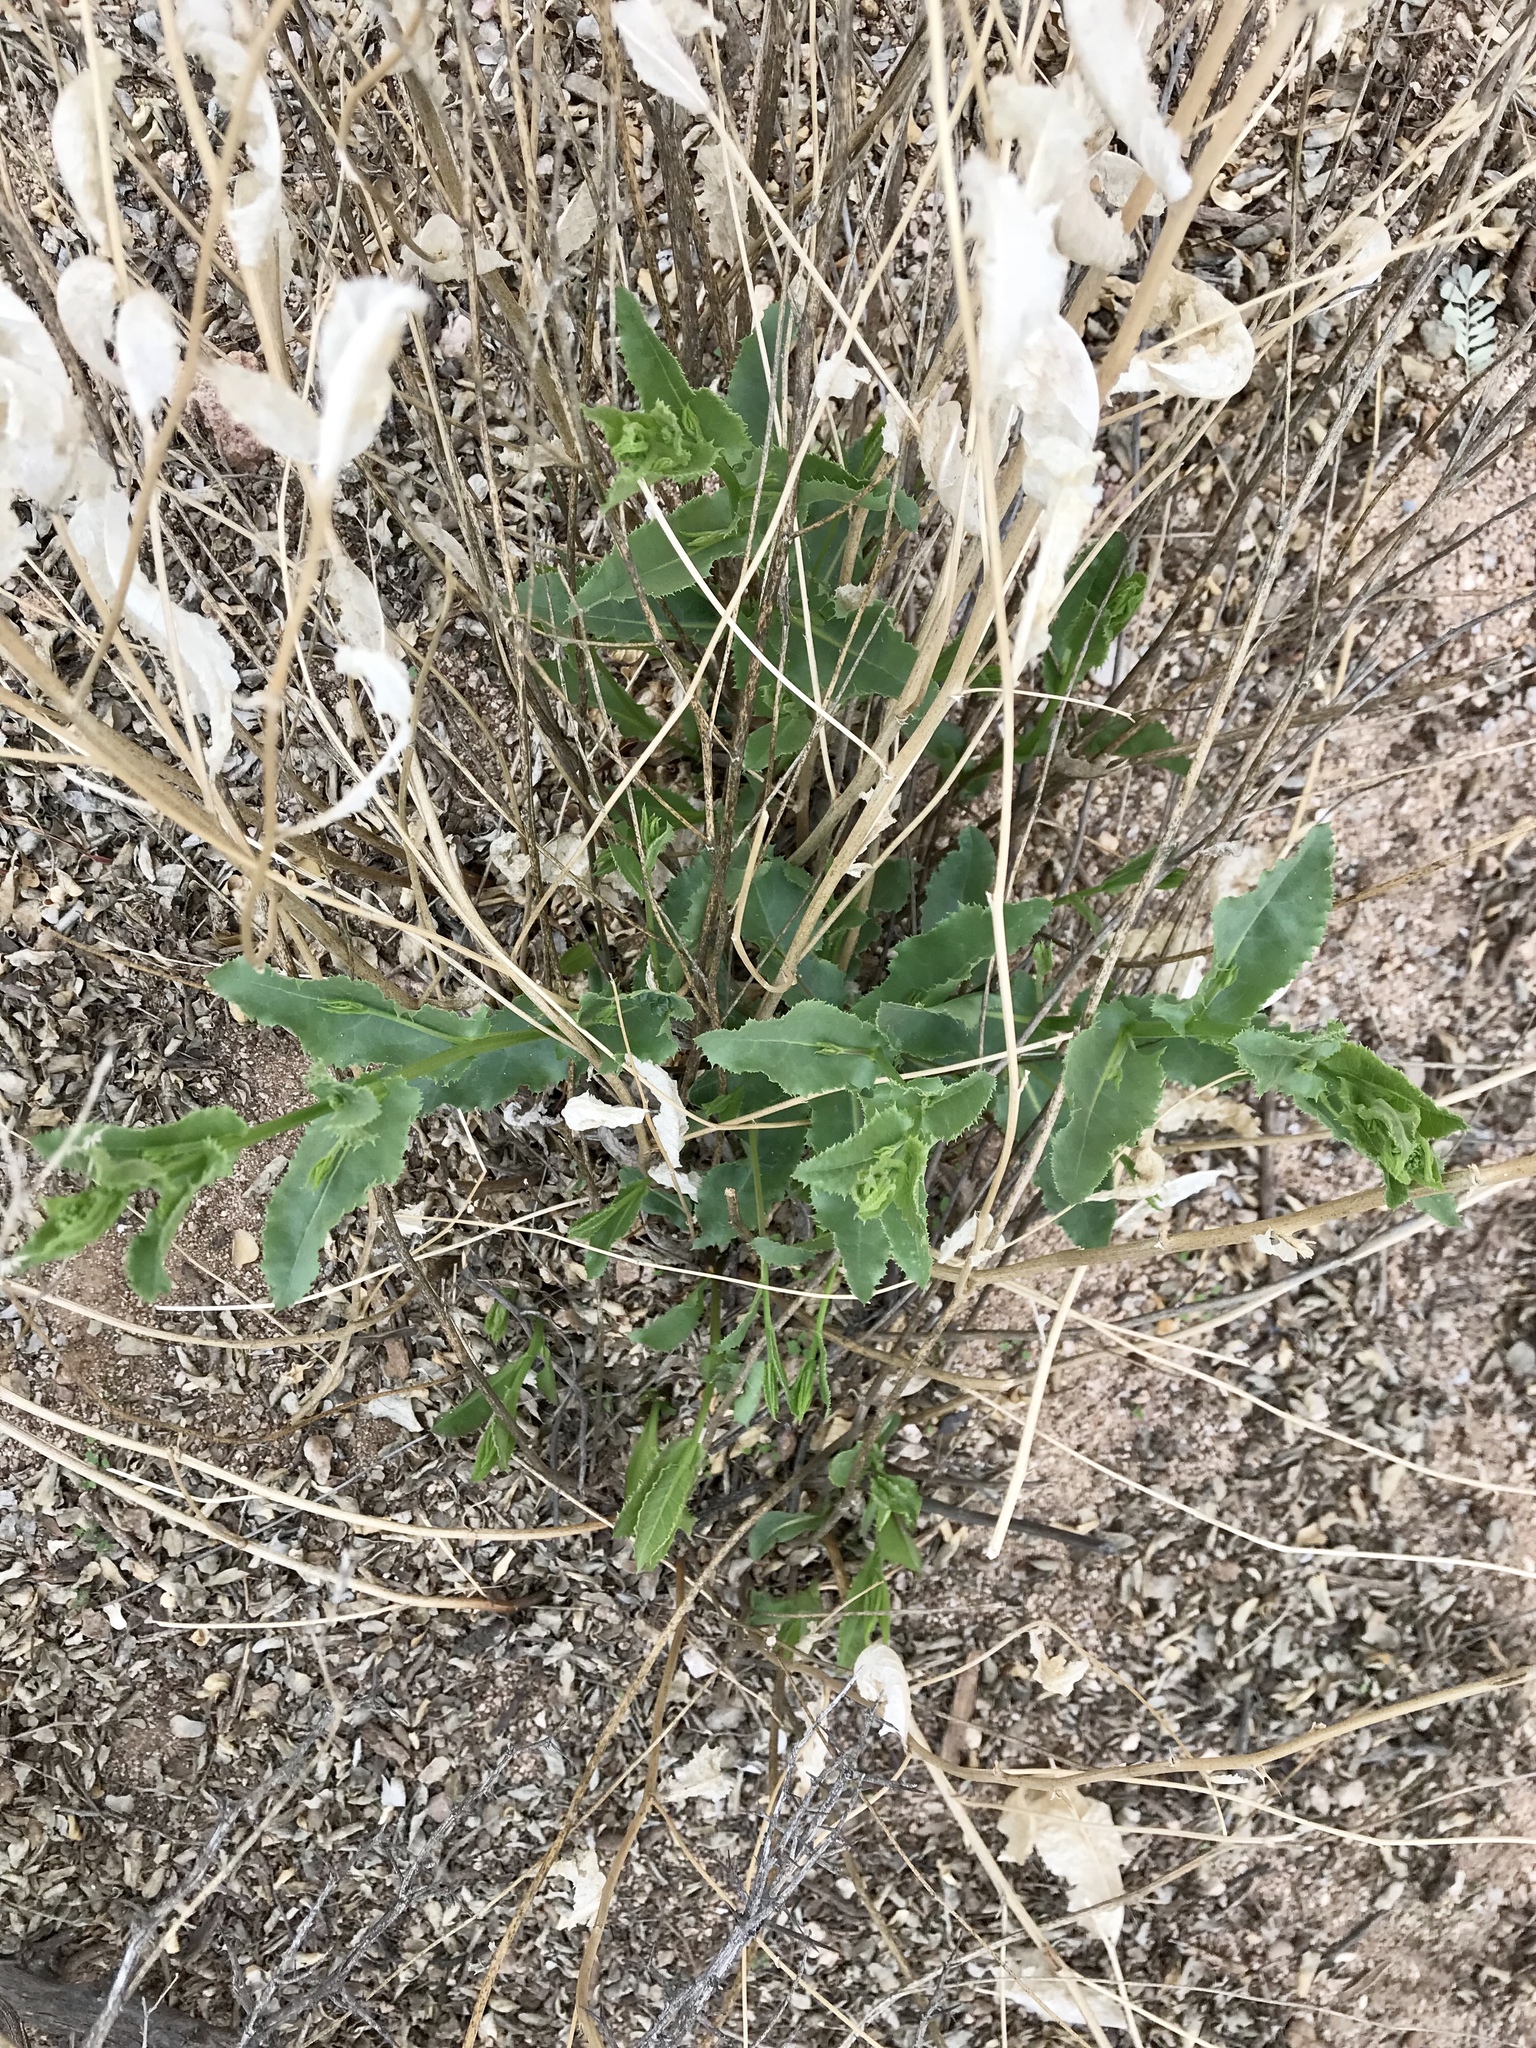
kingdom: Plantae
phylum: Tracheophyta
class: Magnoliopsida
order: Asterales
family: Asteraceae
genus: Acourtia
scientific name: Acourtia wrightii
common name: Brownfoot
